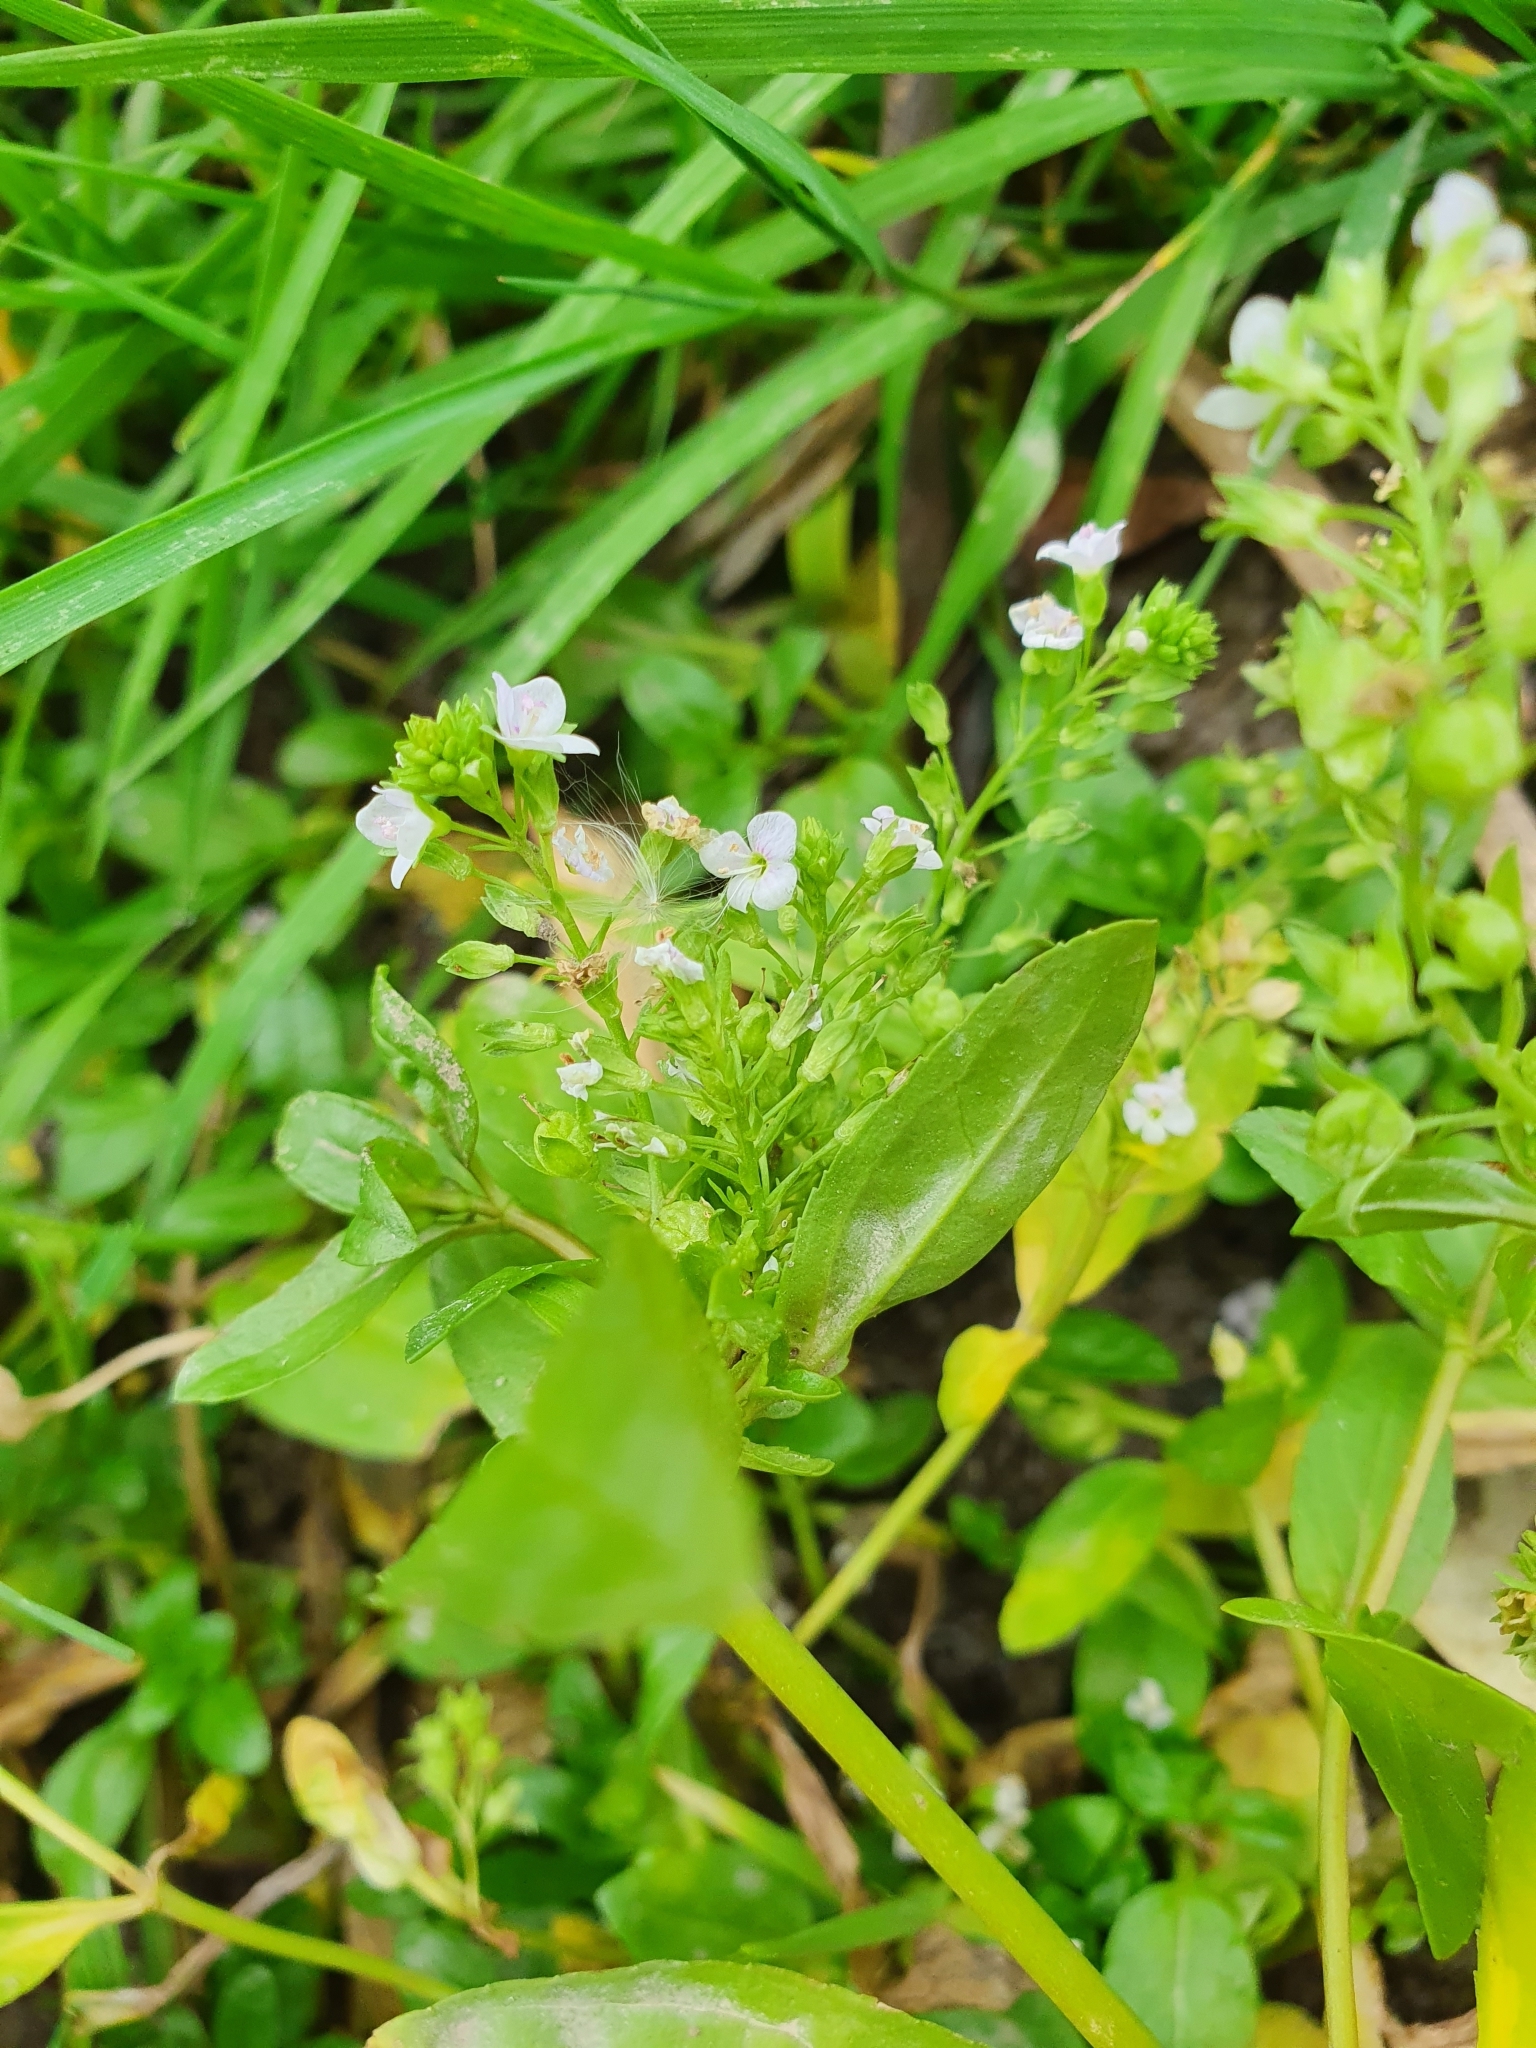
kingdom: Plantae
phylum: Tracheophyta
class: Magnoliopsida
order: Lamiales
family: Plantaginaceae
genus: Veronica
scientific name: Veronica anagallis-aquatica
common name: Water speedwell
